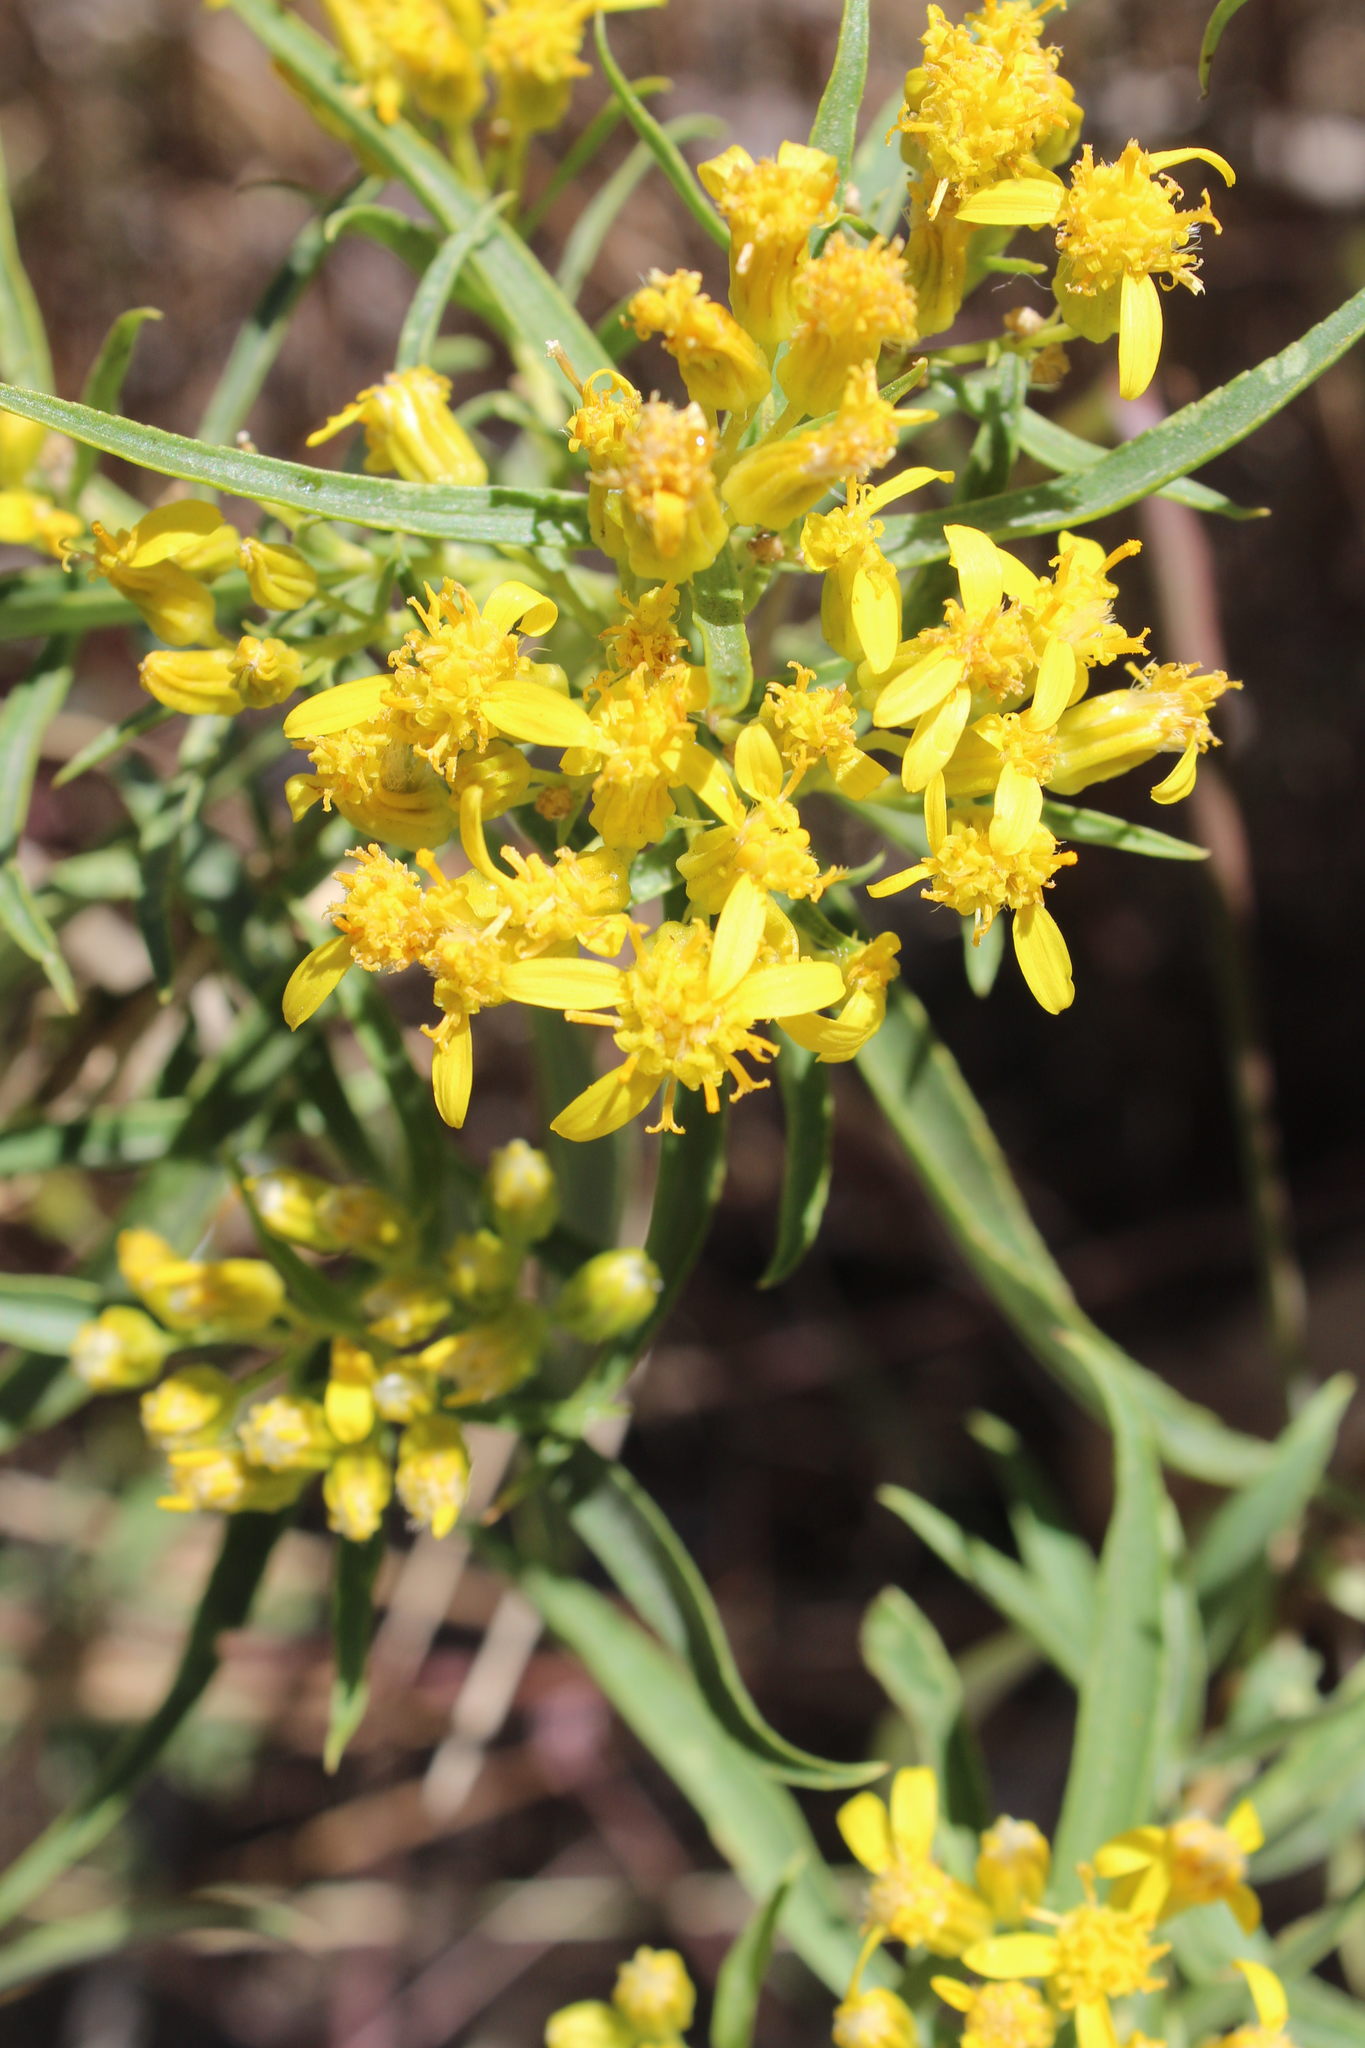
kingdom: Plantae
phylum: Tracheophyta
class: Magnoliopsida
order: Asterales
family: Asteraceae
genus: Barkleyanthus
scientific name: Barkleyanthus salicifolius
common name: Willow ragwort
